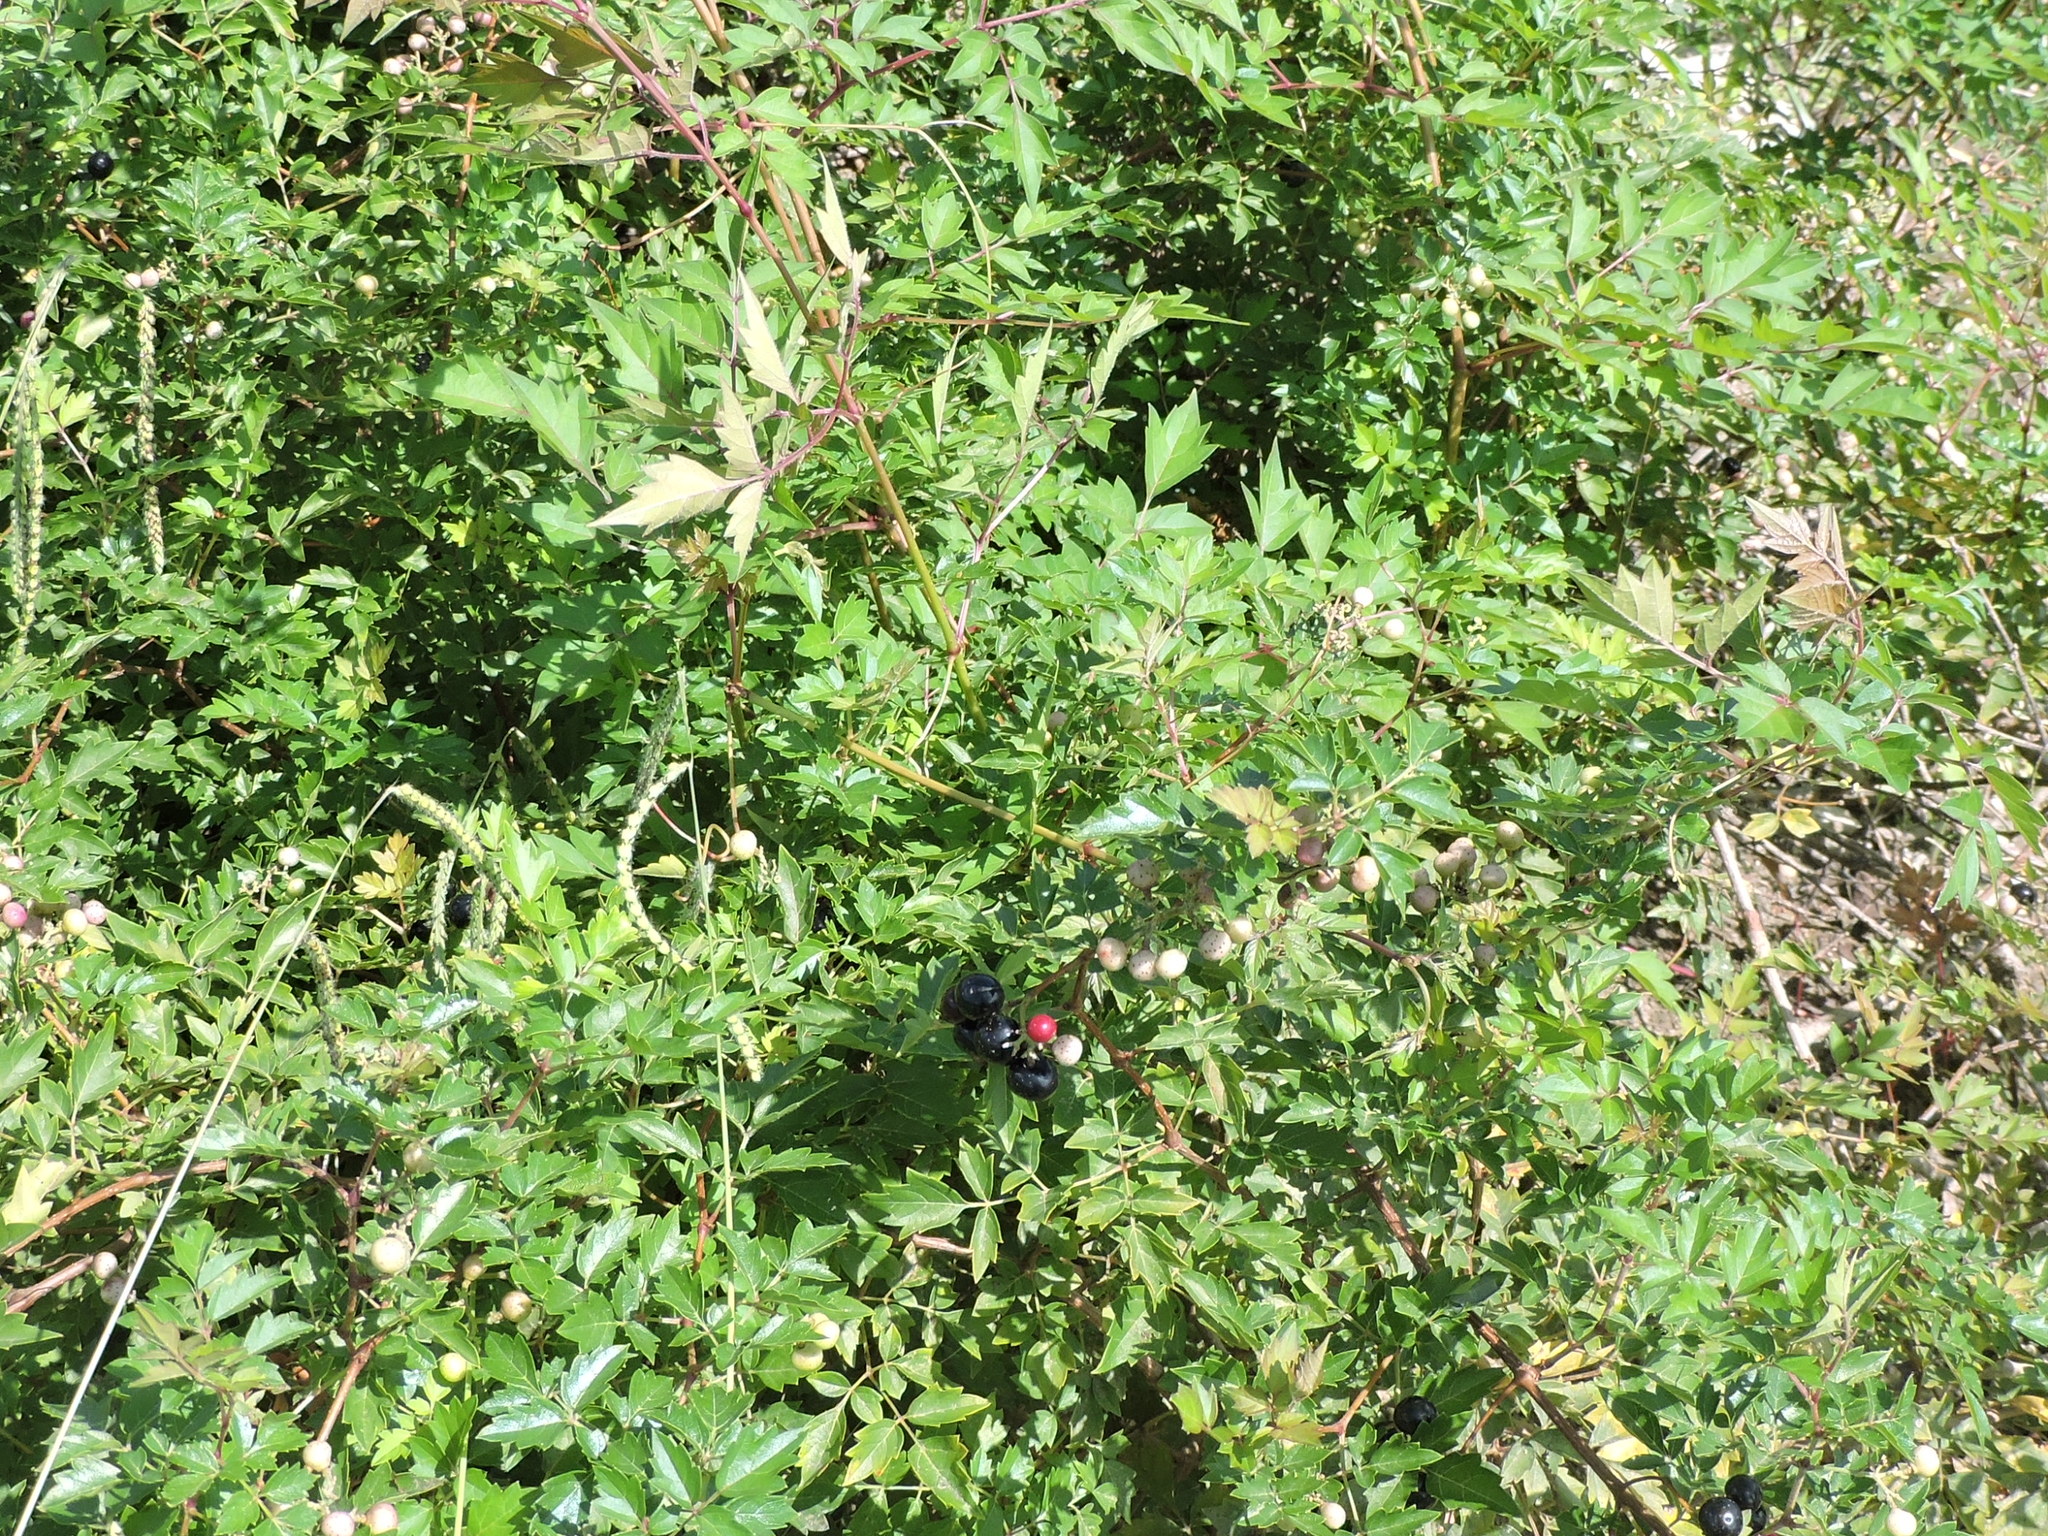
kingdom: Plantae
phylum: Tracheophyta
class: Magnoliopsida
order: Vitales
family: Vitaceae
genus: Nekemias
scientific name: Nekemias arborea
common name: Peppervine
